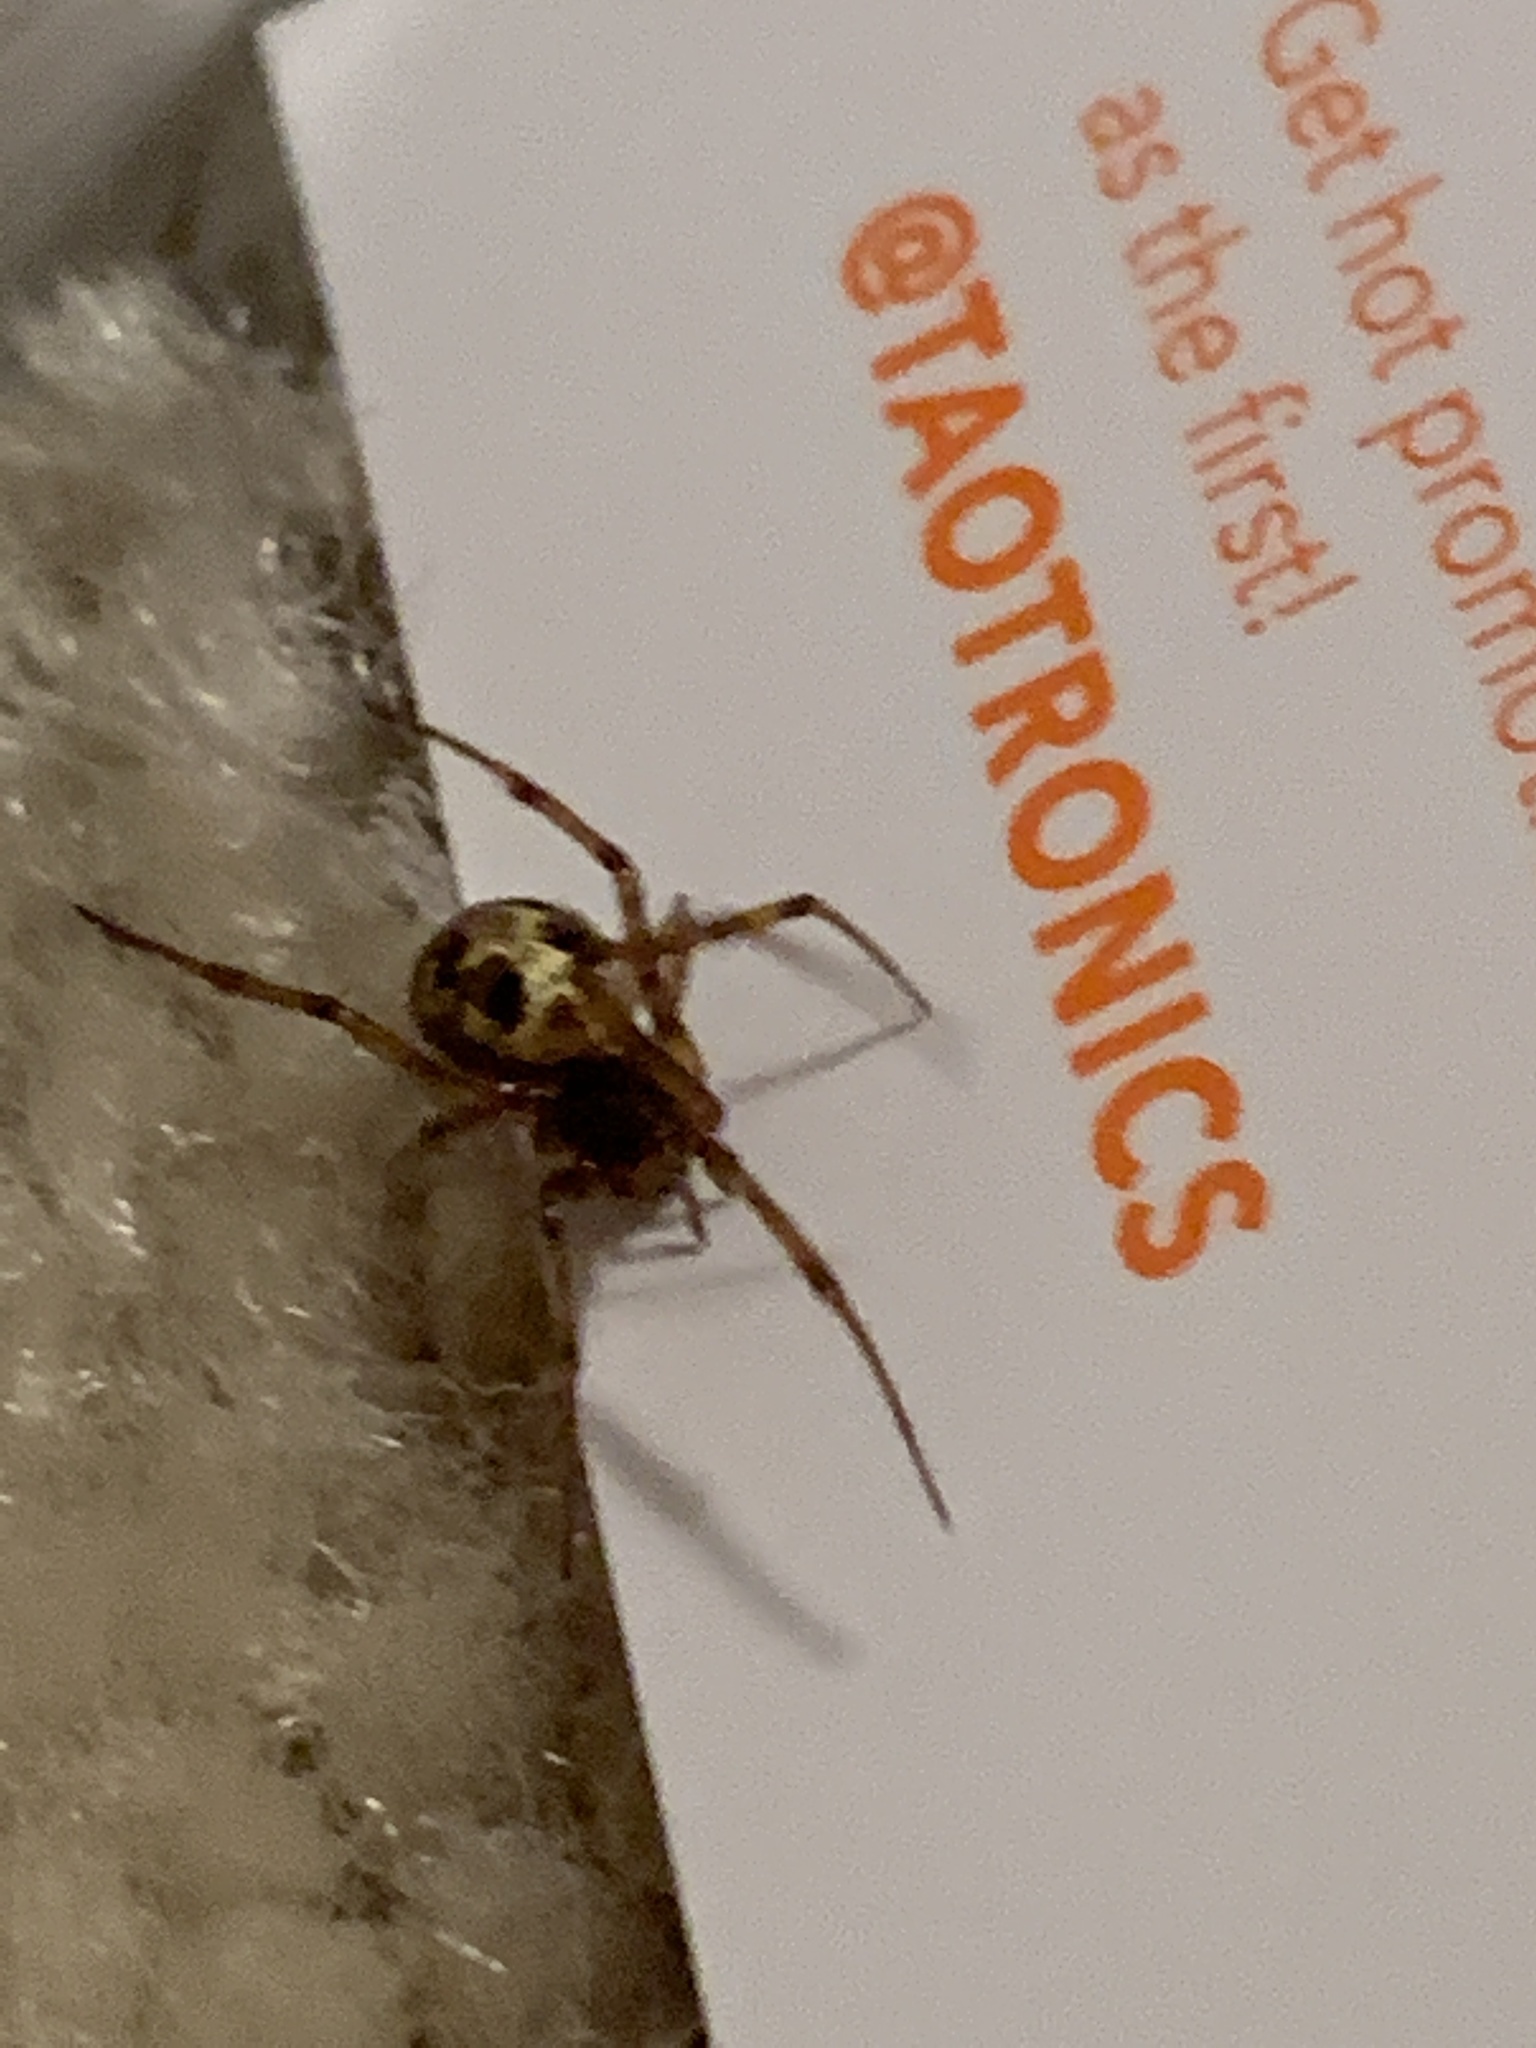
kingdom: Animalia
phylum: Arthropoda
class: Arachnida
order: Araneae
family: Theridiidae
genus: Steatoda
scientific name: Steatoda triangulosa
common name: Triangulate bud spider
